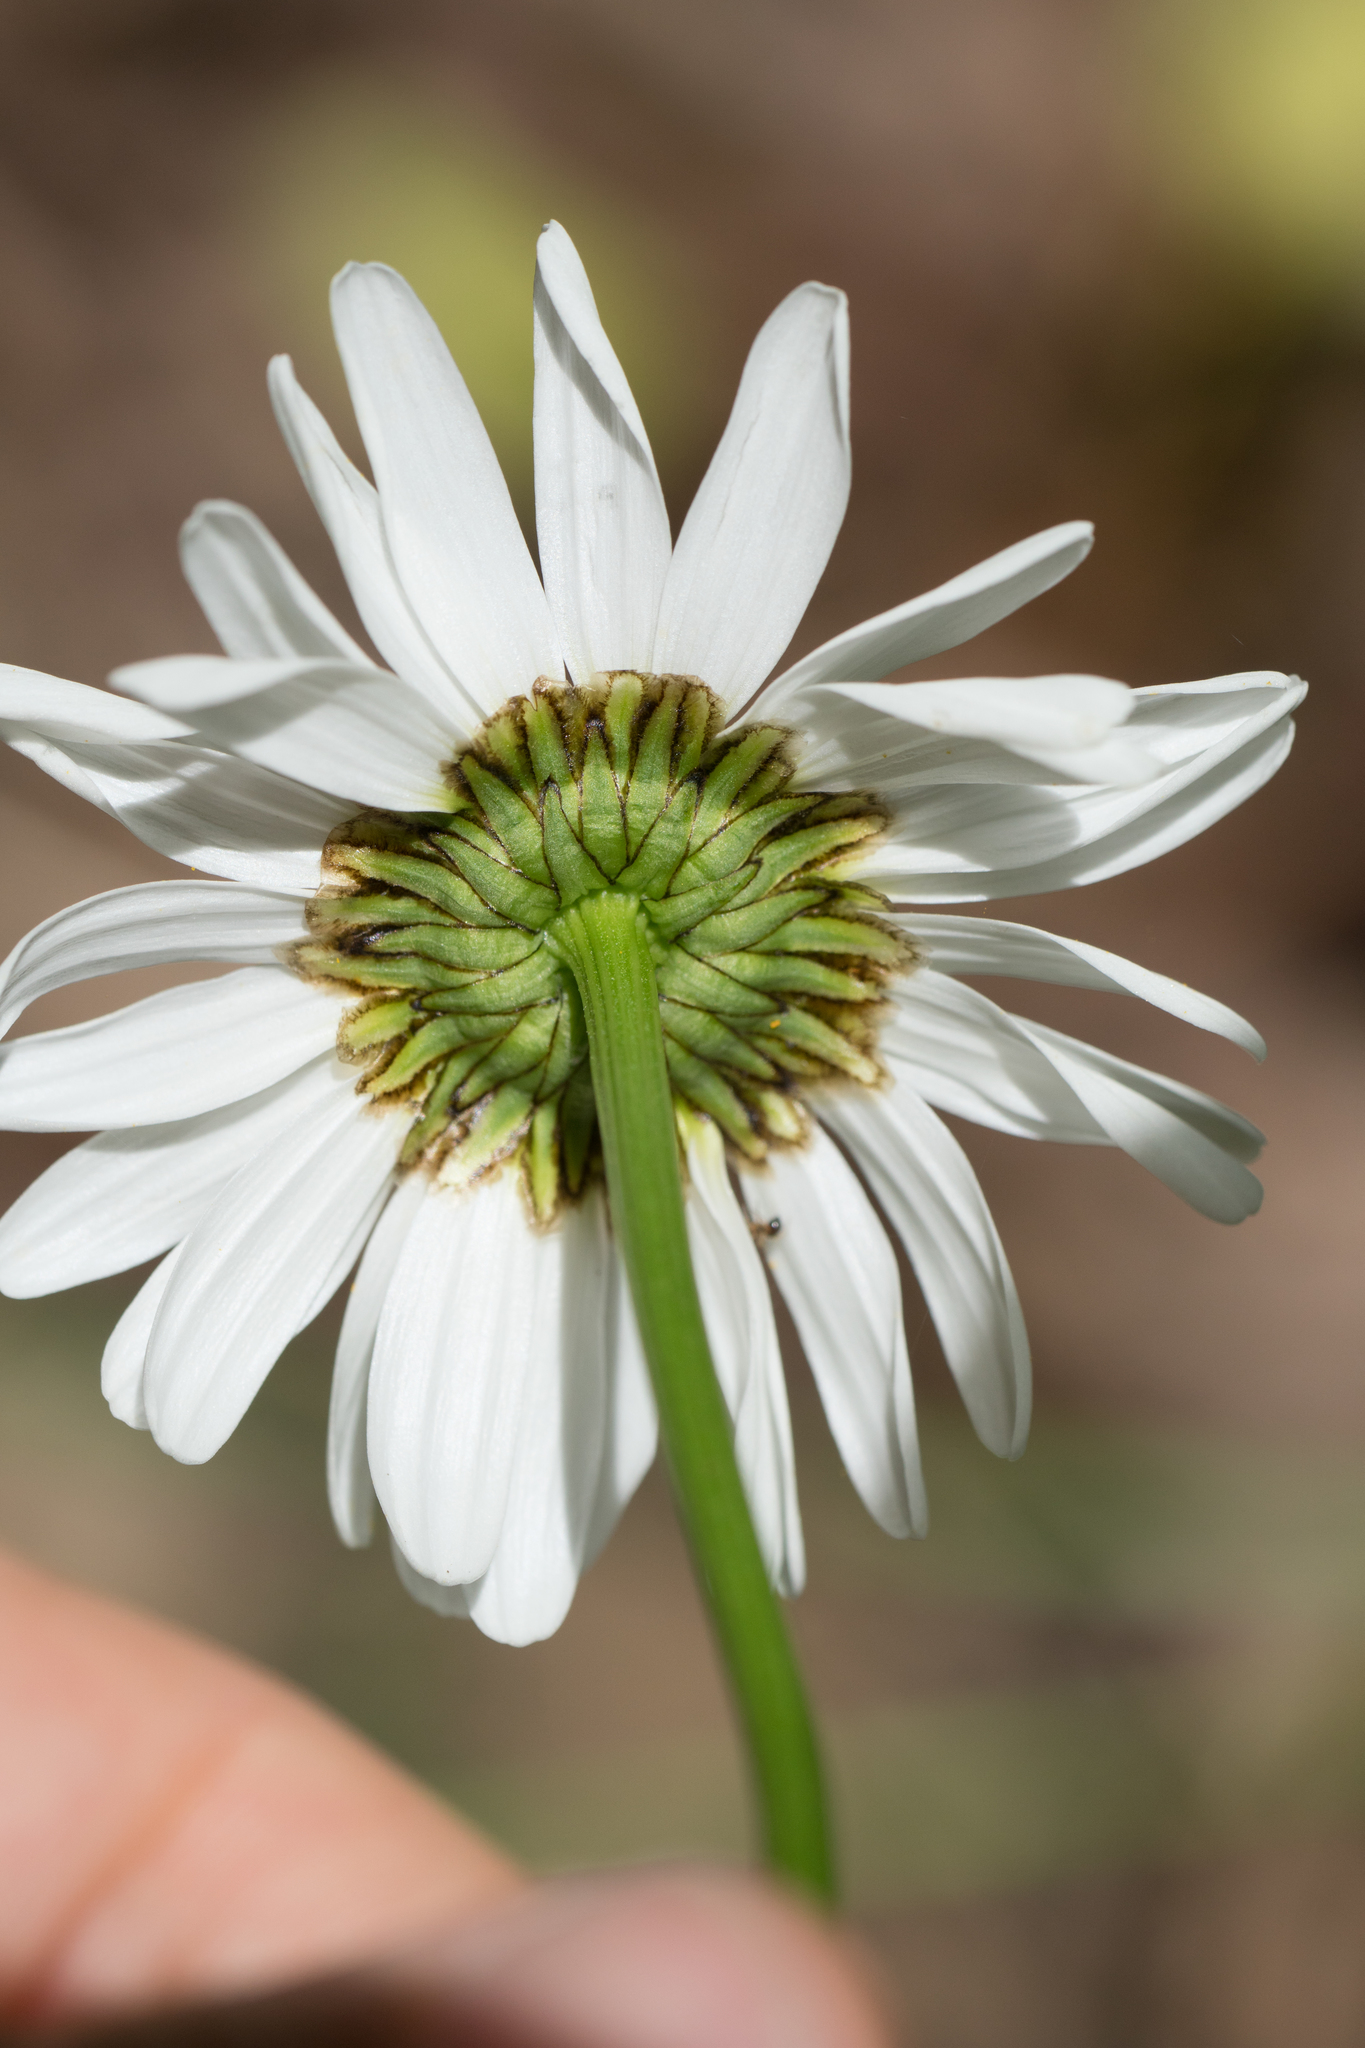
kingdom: Plantae
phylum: Tracheophyta
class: Magnoliopsida
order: Asterales
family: Asteraceae
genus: Leucanthemum
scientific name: Leucanthemum vulgare
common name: Oxeye daisy
